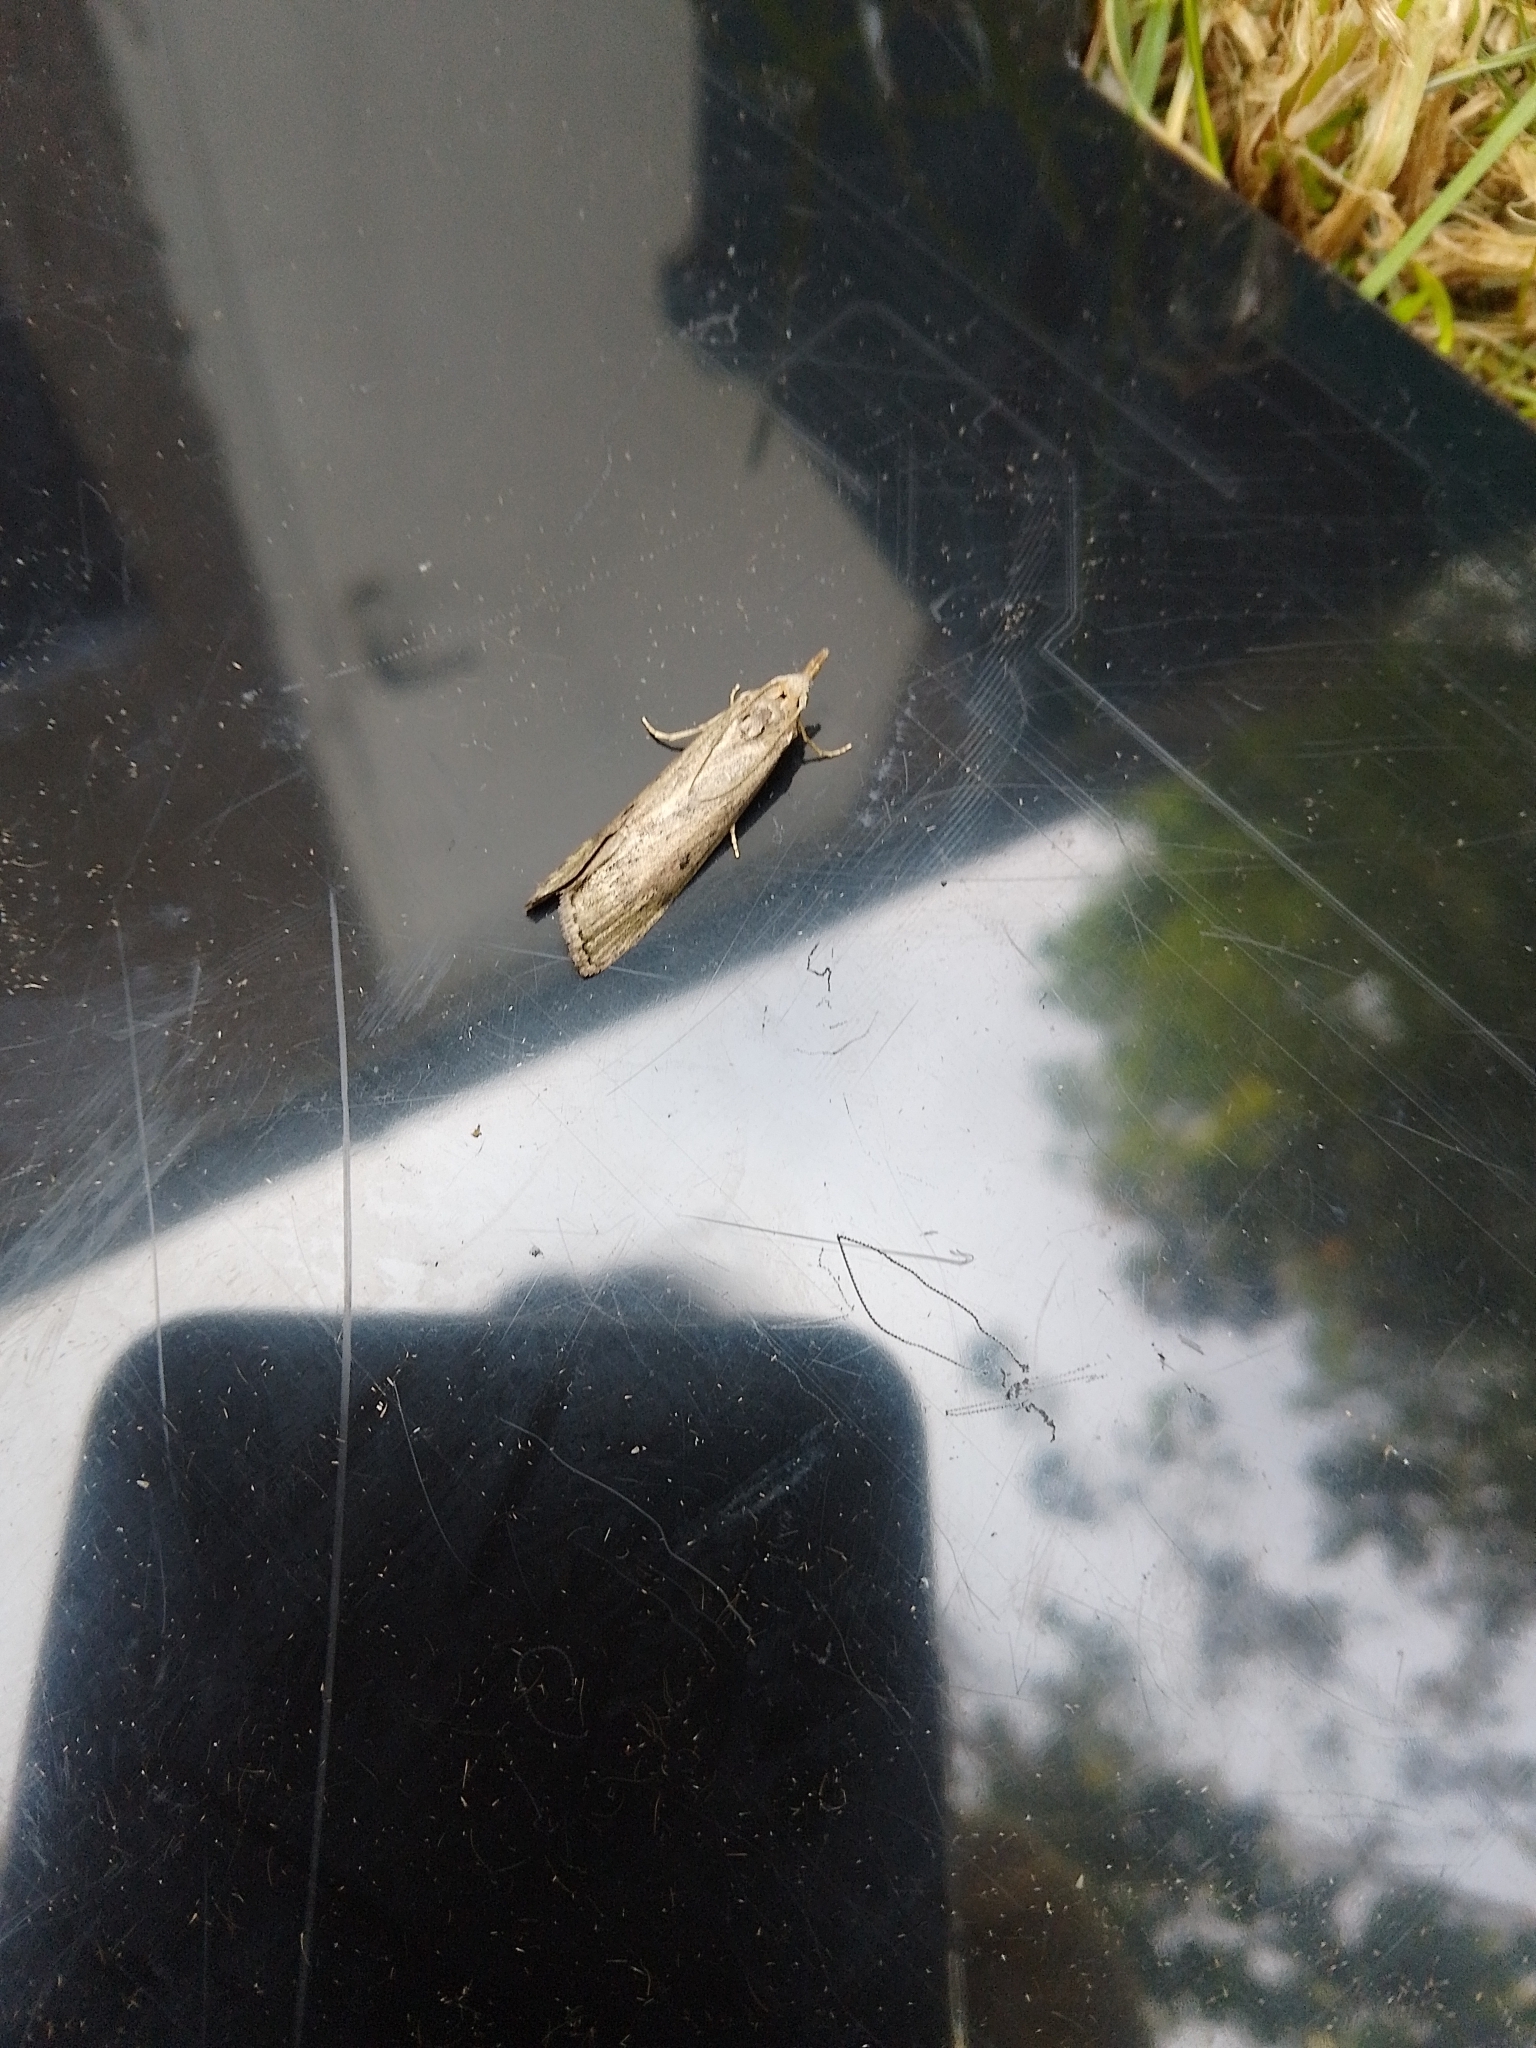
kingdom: Animalia
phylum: Arthropoda
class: Insecta
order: Lepidoptera
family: Pyralidae
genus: Aphomia
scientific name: Aphomia sociella
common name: Bee moth
